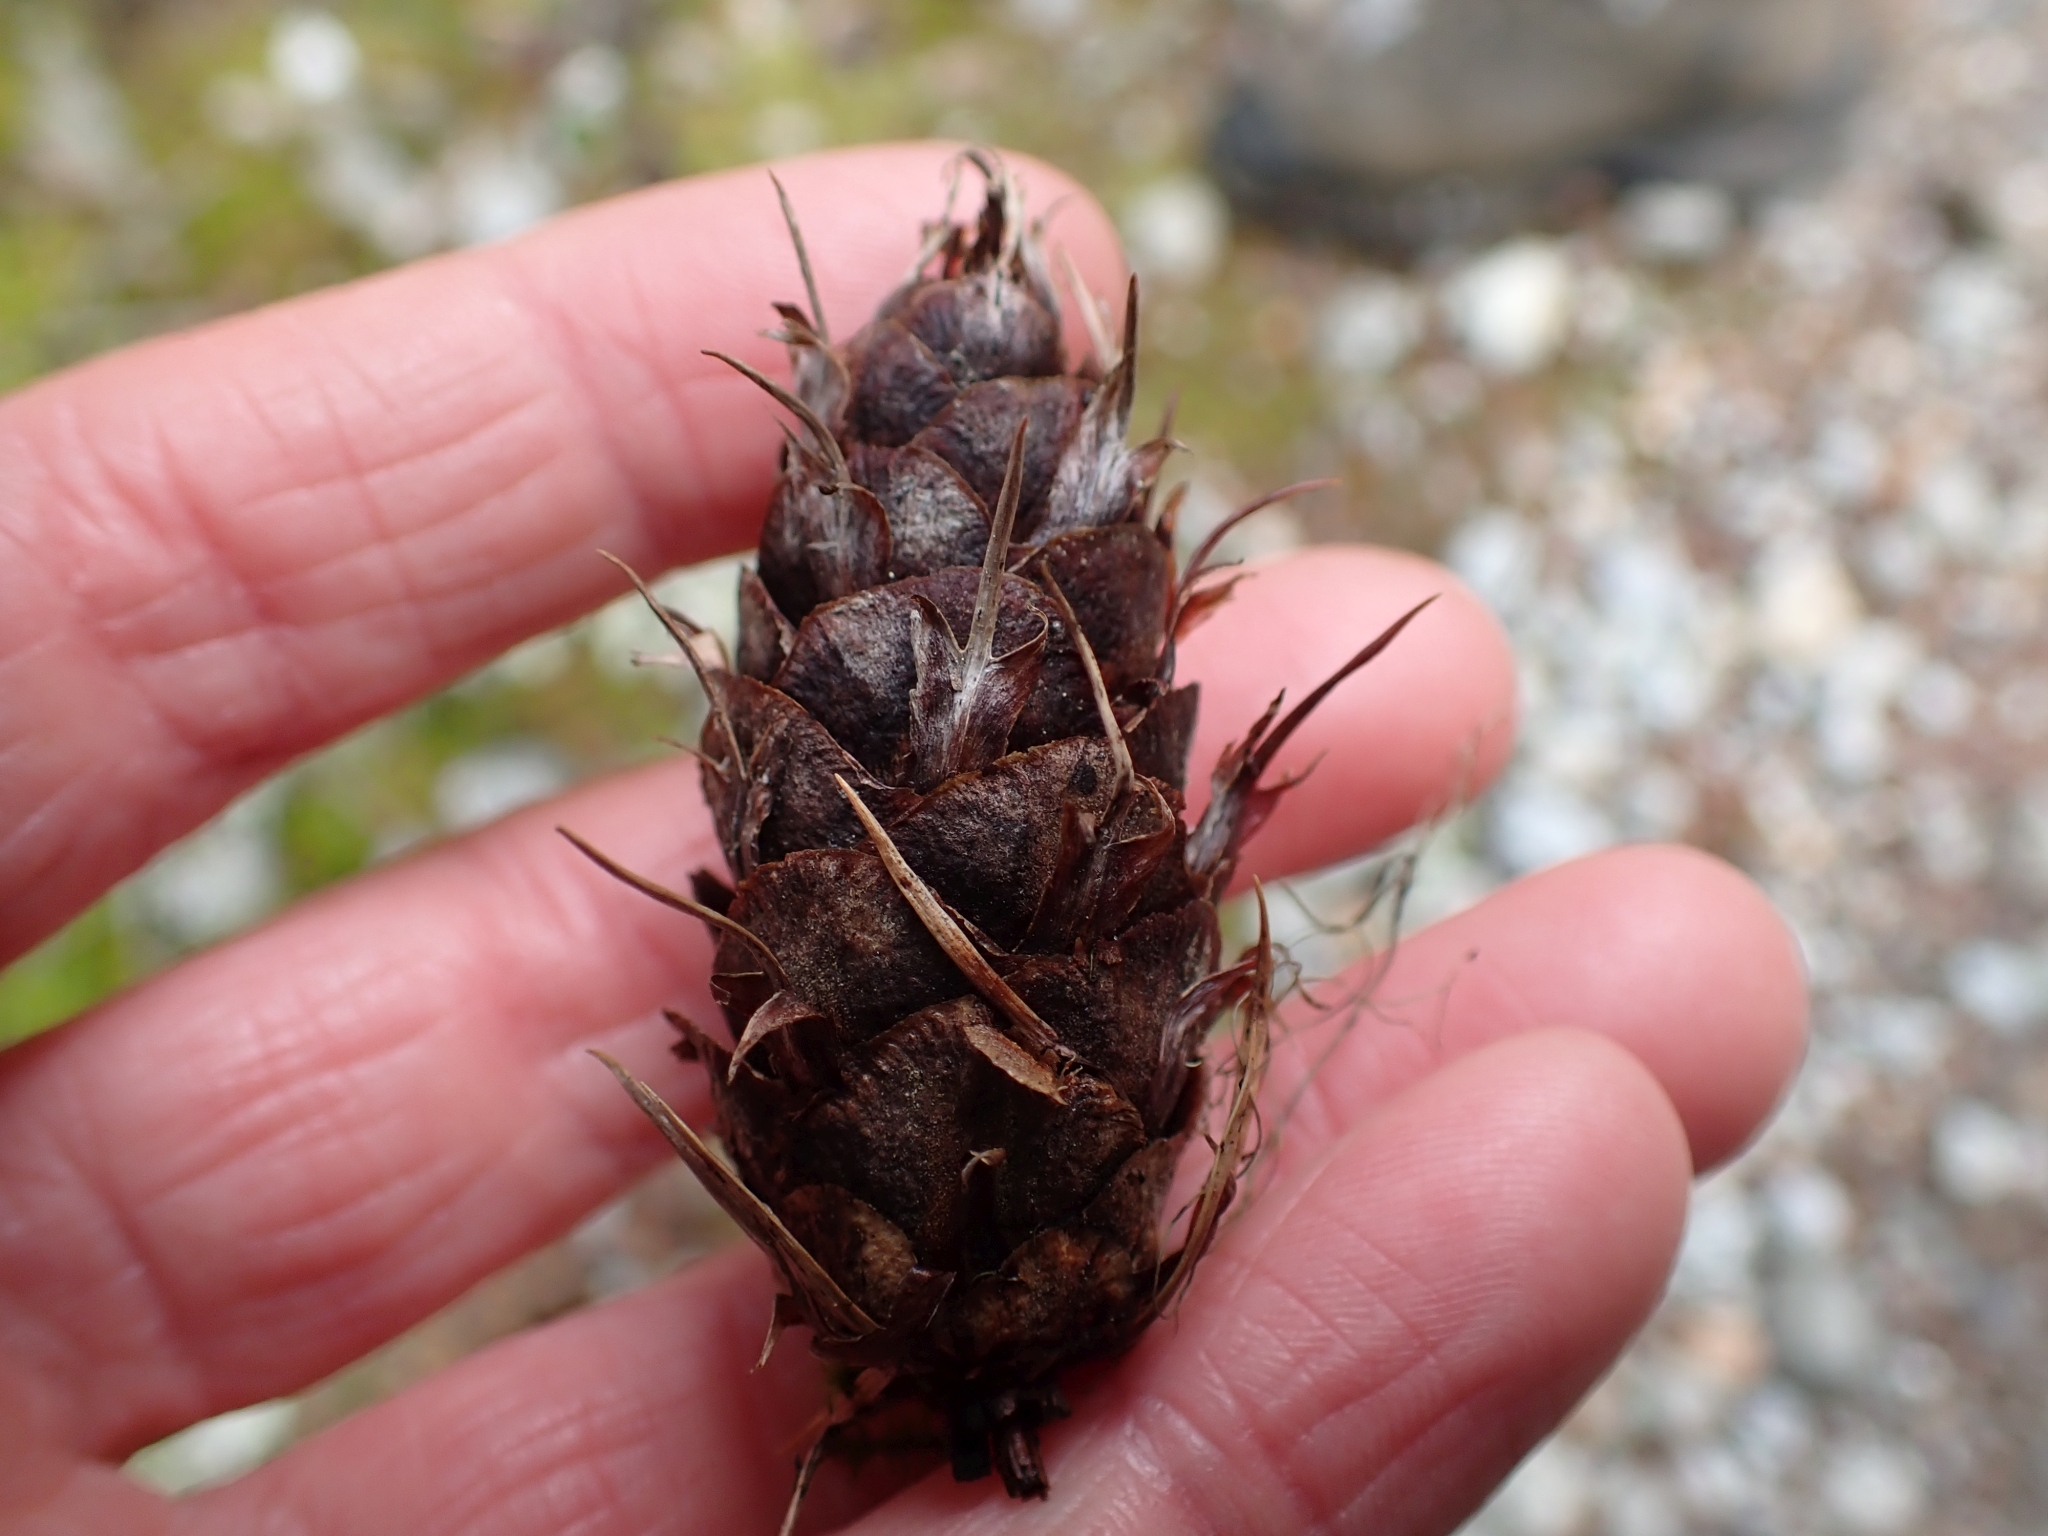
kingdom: Plantae
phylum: Tracheophyta
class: Pinopsida
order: Pinales
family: Pinaceae
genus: Pseudotsuga
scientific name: Pseudotsuga menziesii
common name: Douglas fir
